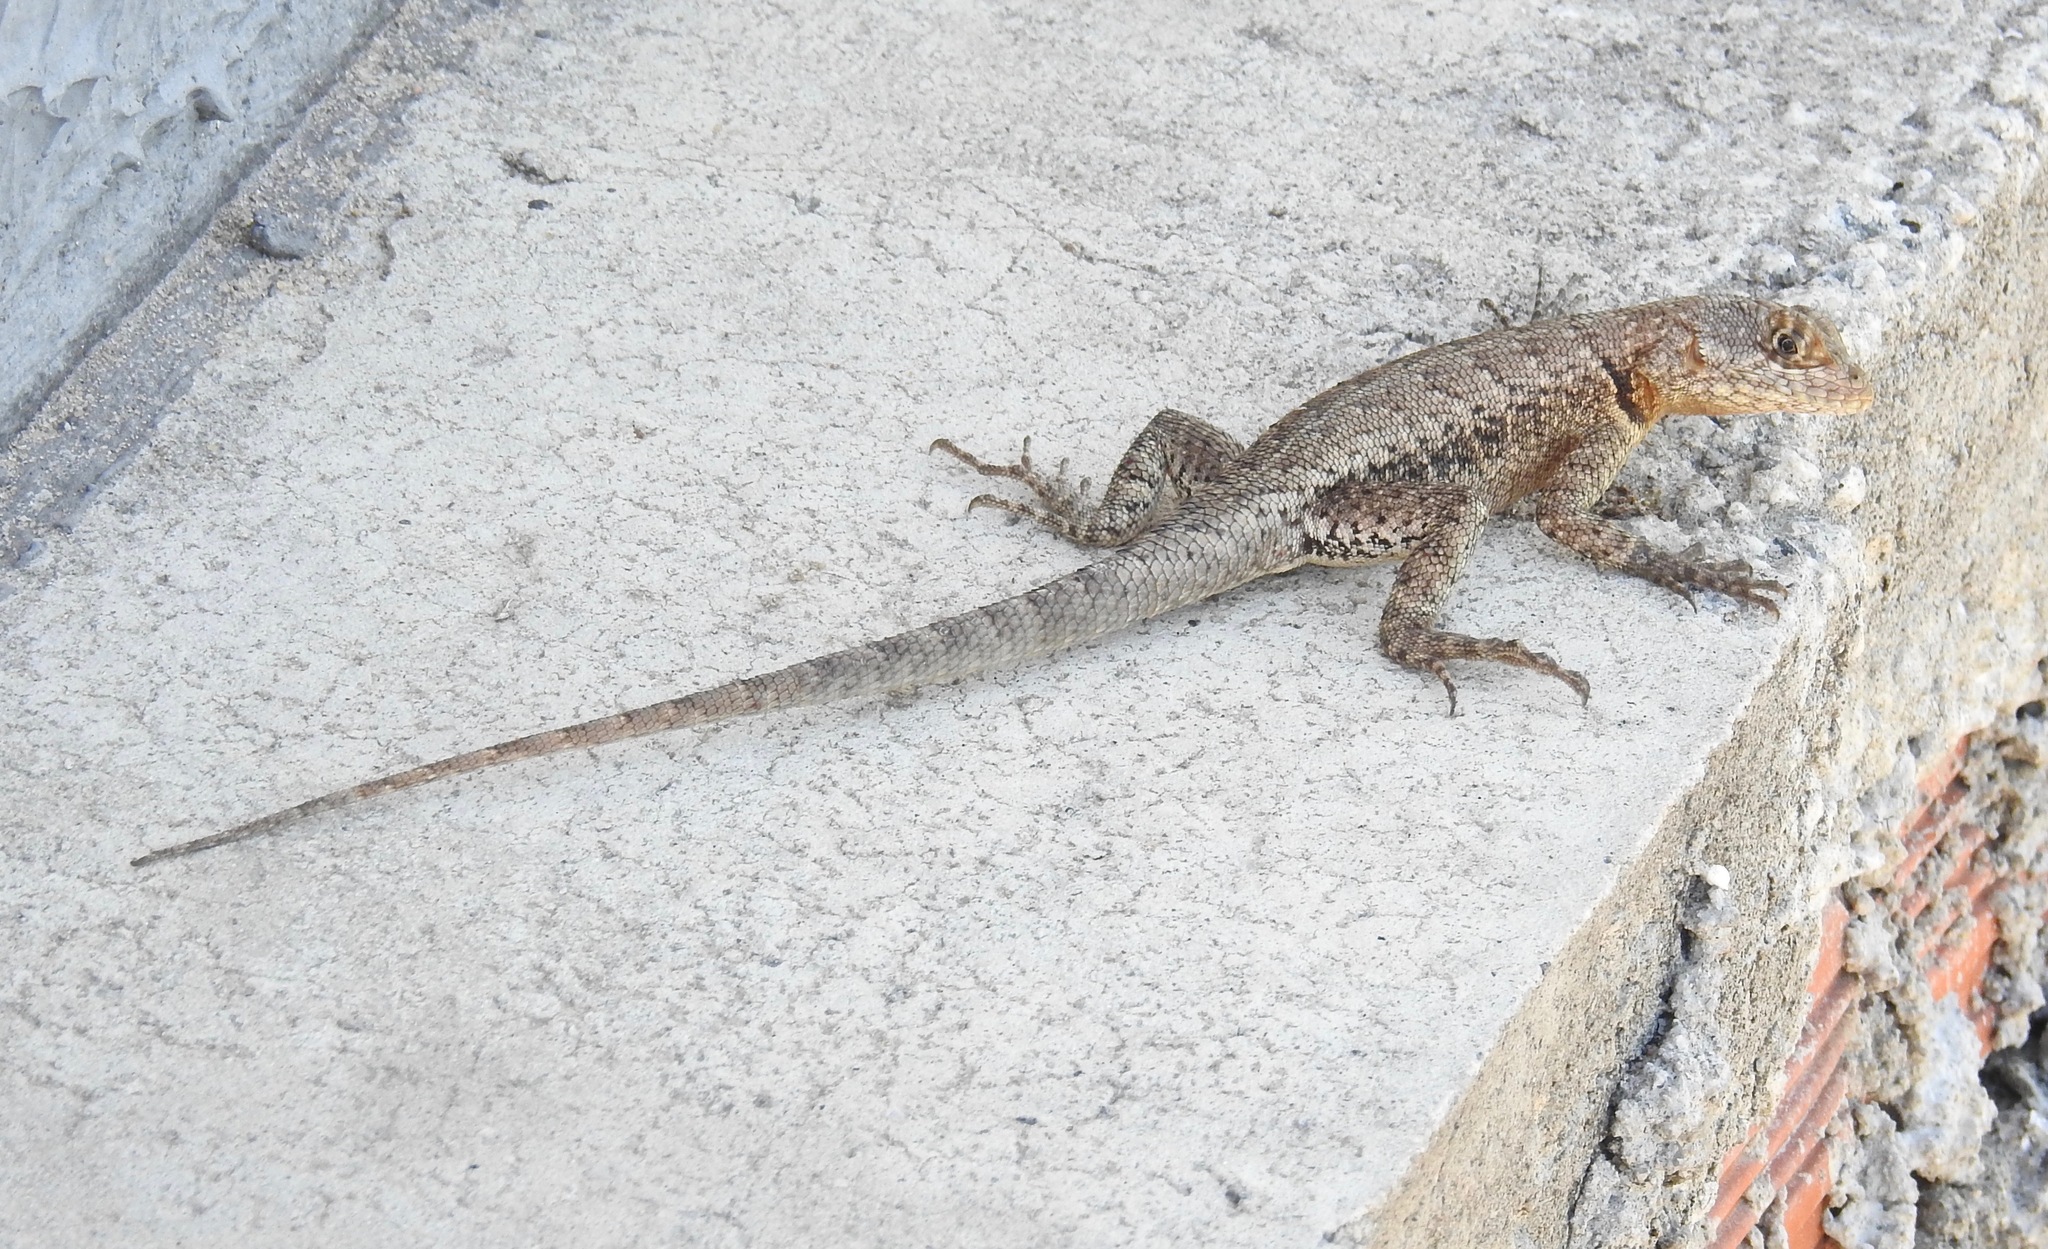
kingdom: Animalia
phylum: Chordata
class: Squamata
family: Tropiduridae
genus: Tropidurus
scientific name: Tropidurus hispidus
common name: Peters' lava lizard
